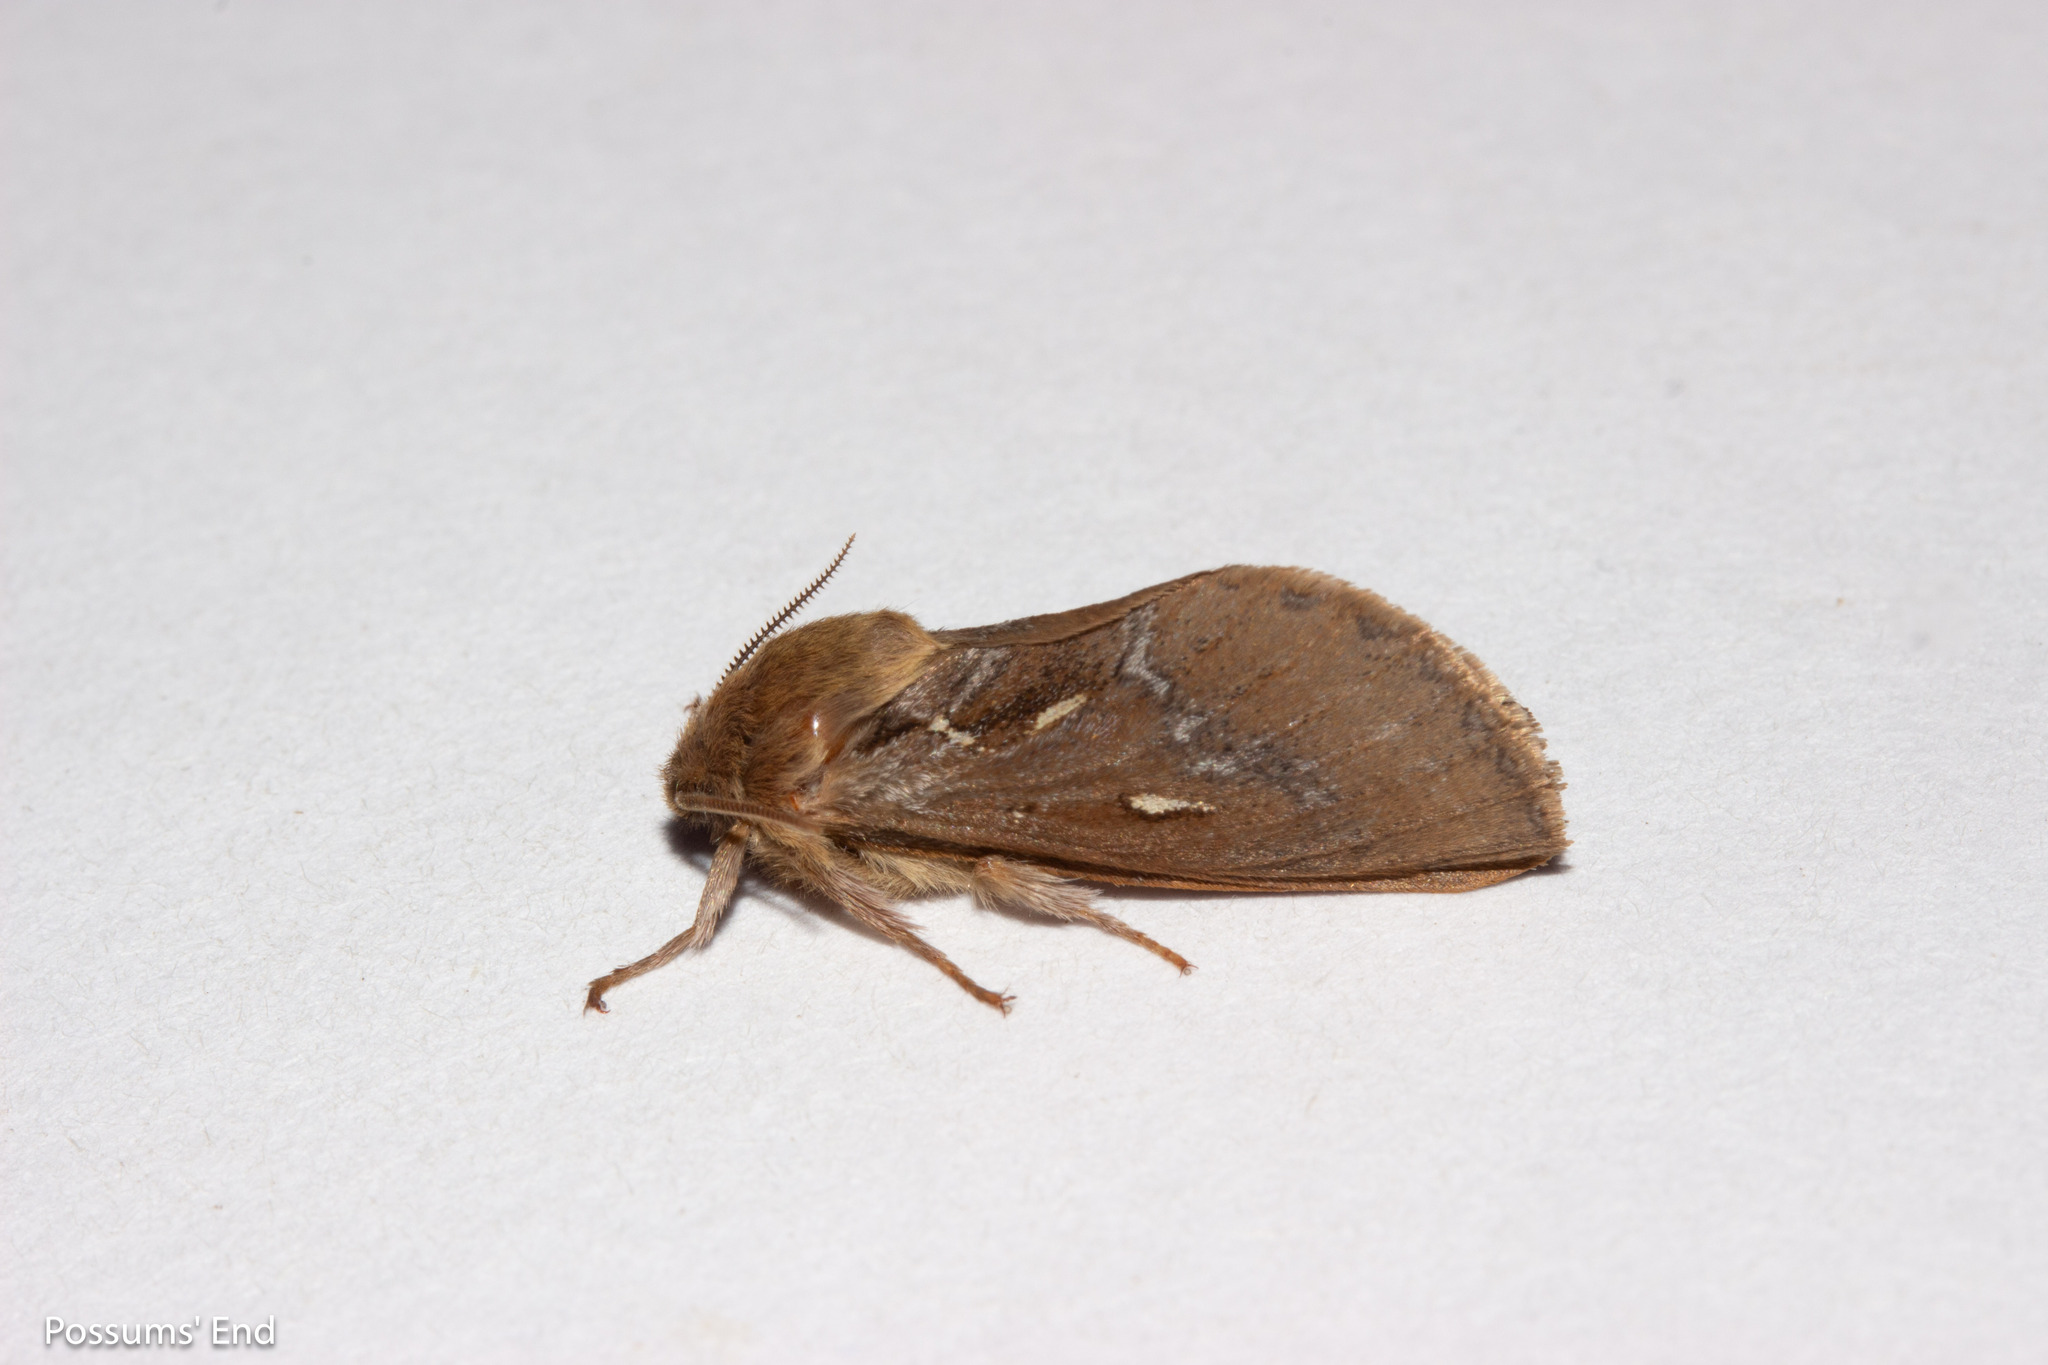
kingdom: Animalia
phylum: Arthropoda
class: Insecta
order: Lepidoptera
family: Hepialidae
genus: Dioxycanus
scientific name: Dioxycanus fusca
